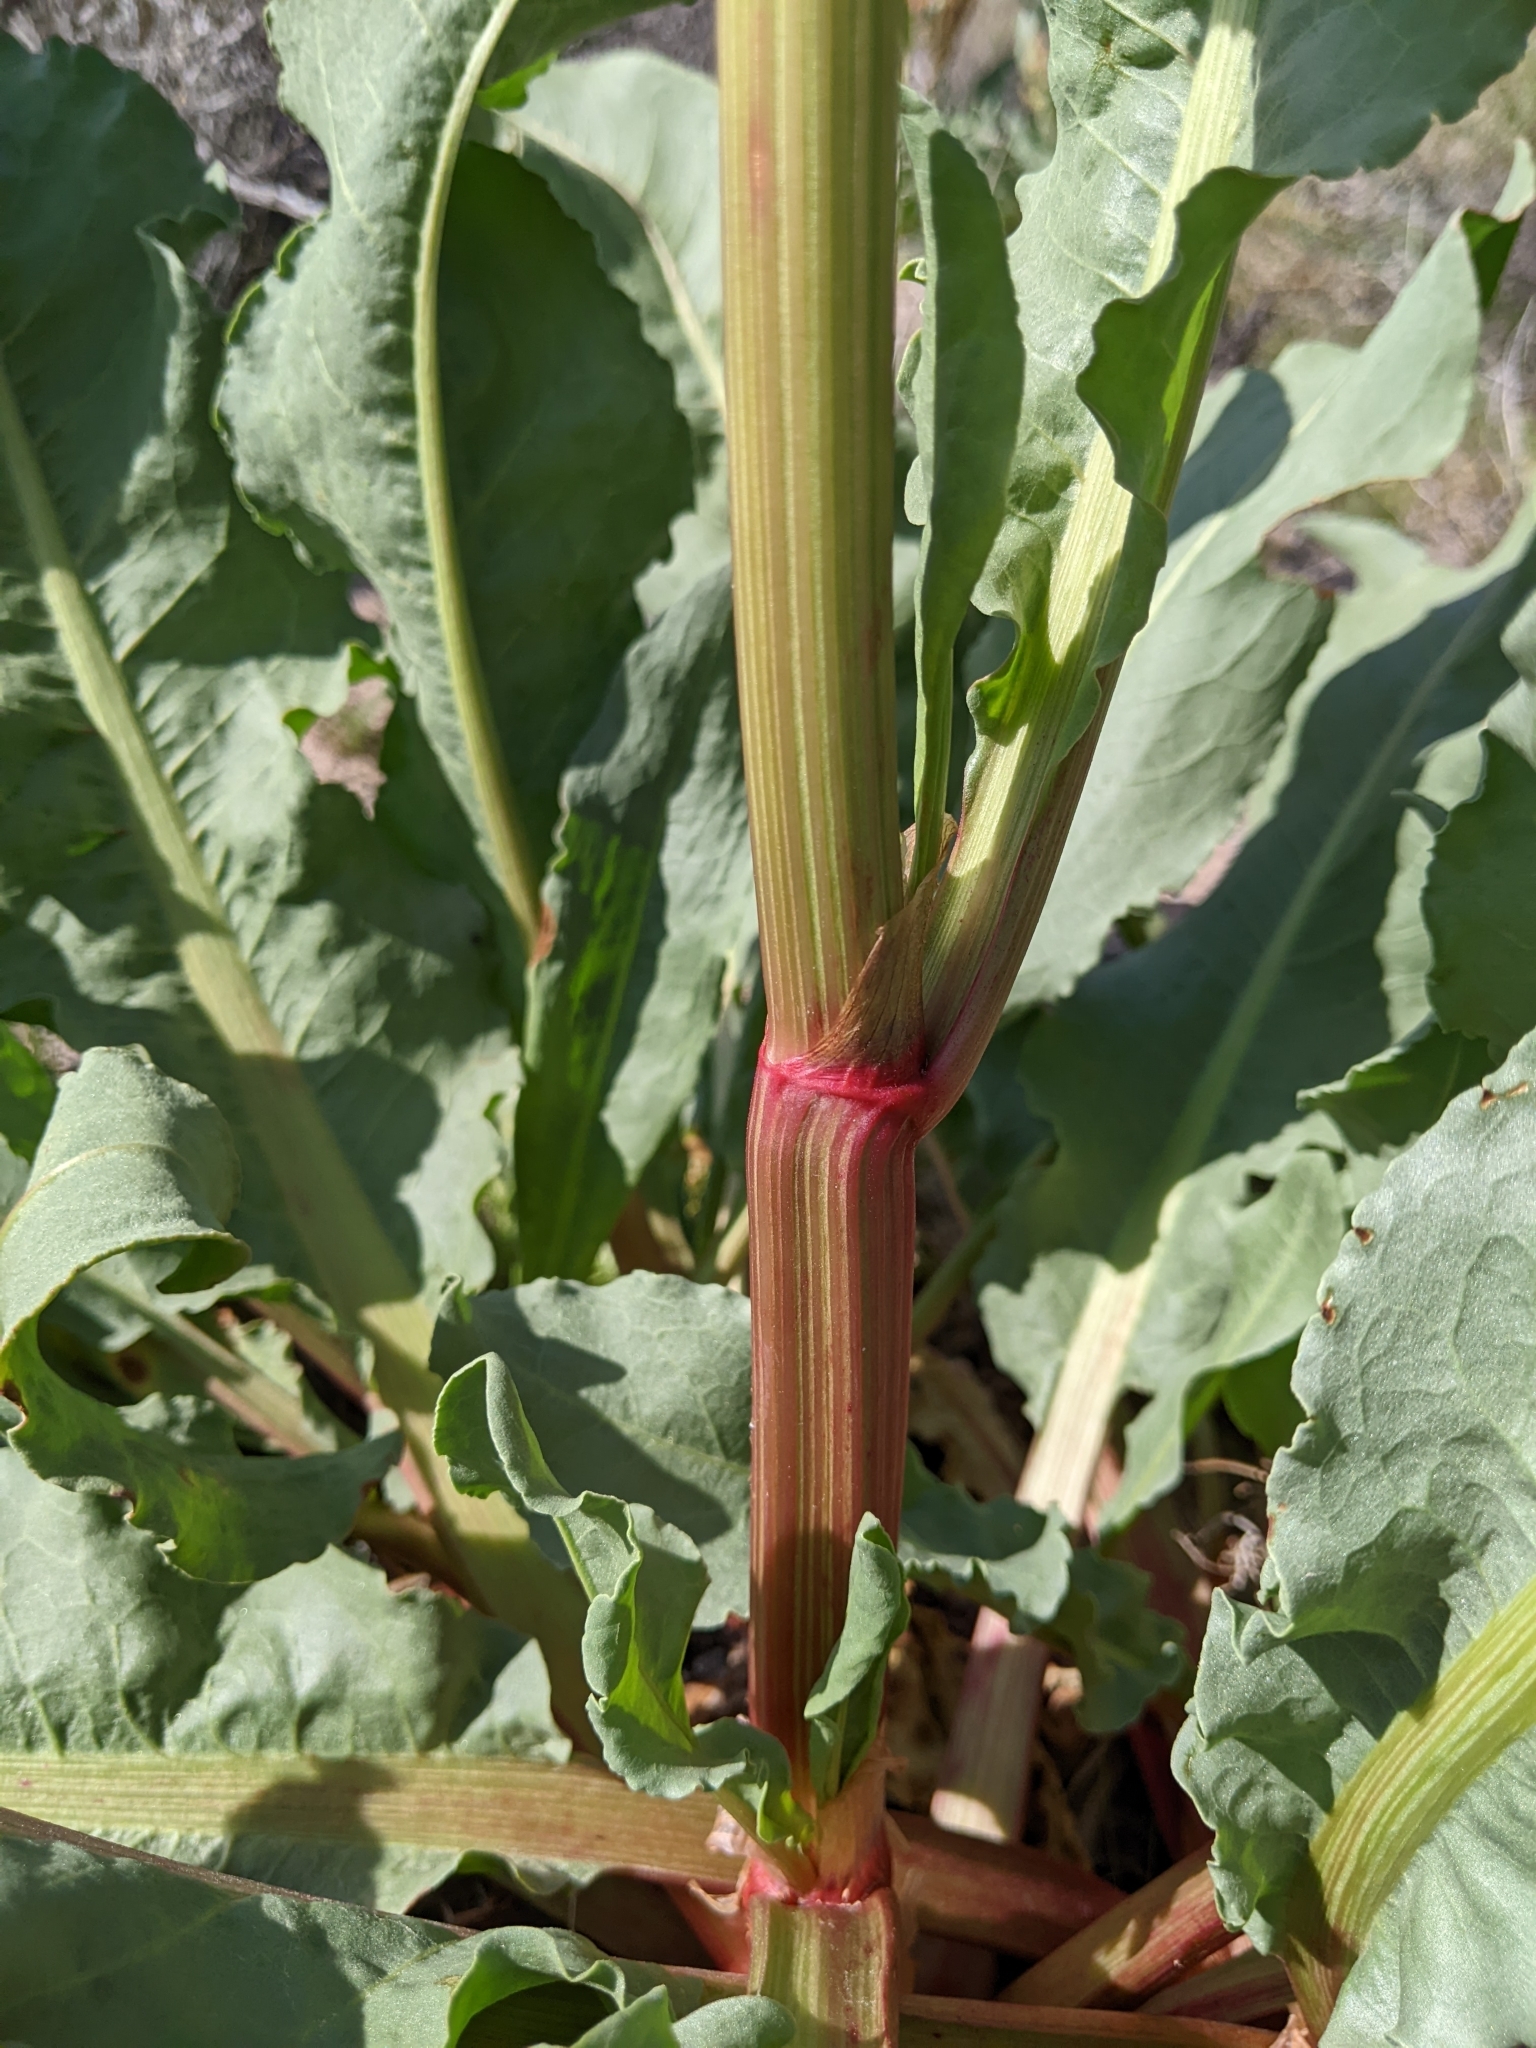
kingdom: Plantae
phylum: Tracheophyta
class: Magnoliopsida
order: Caryophyllales
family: Polygonaceae
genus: Rumex
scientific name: Rumex hymenosepalus
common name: Ganagra
